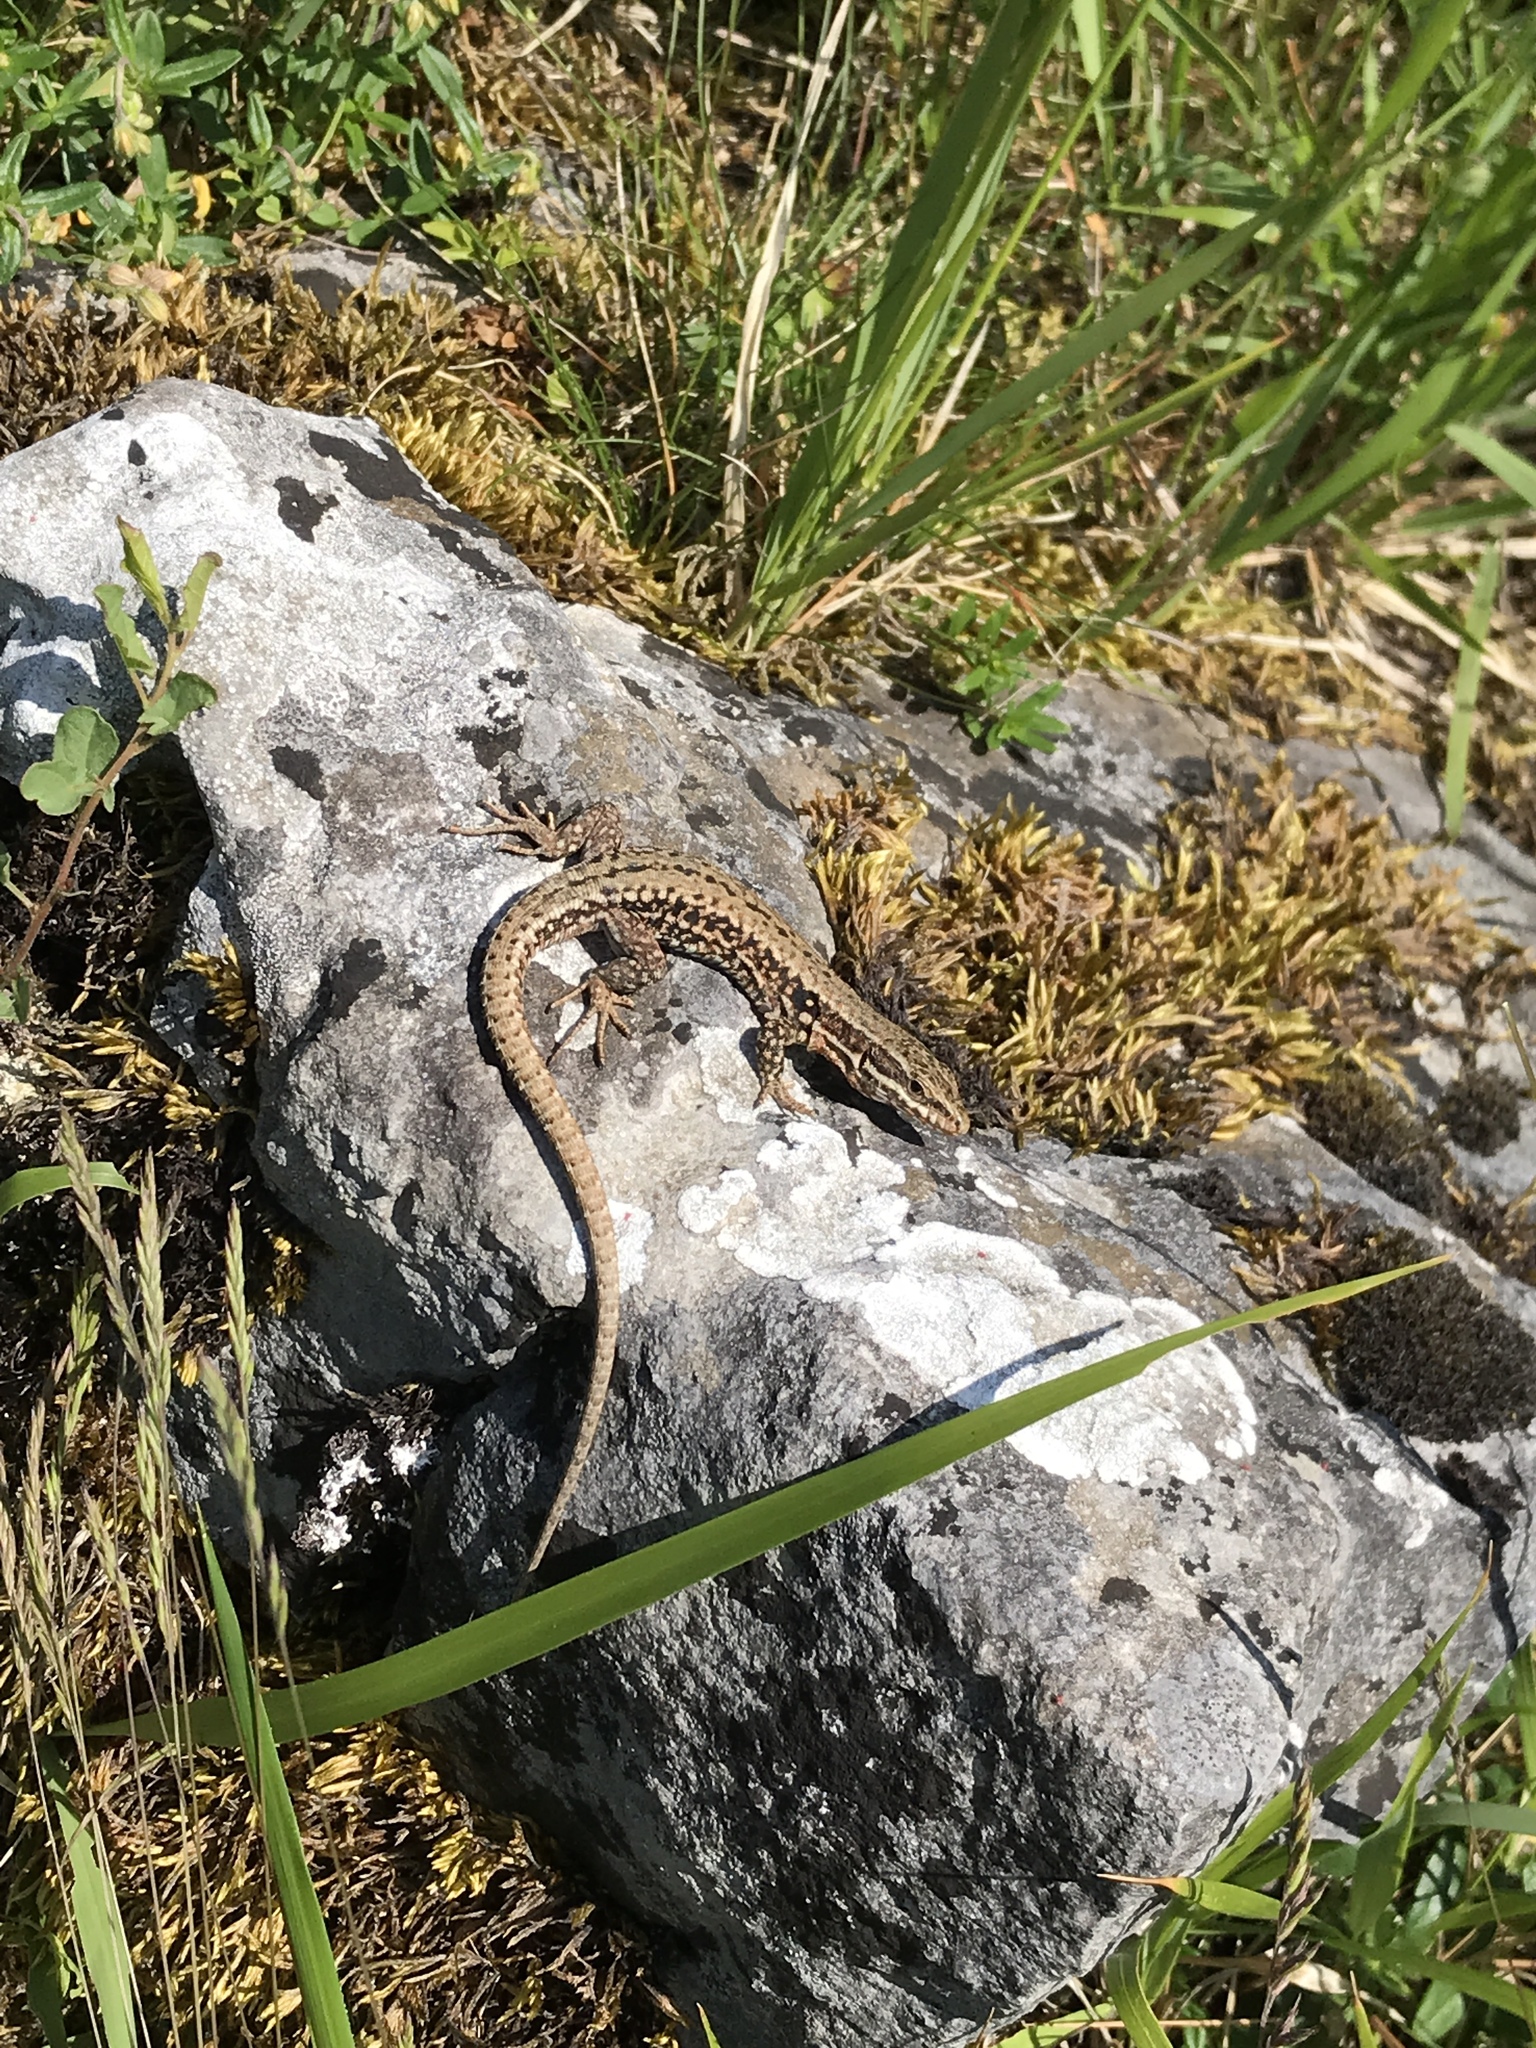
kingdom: Animalia
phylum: Chordata
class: Squamata
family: Lacertidae
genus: Podarcis
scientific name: Podarcis muralis
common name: Common wall lizard
